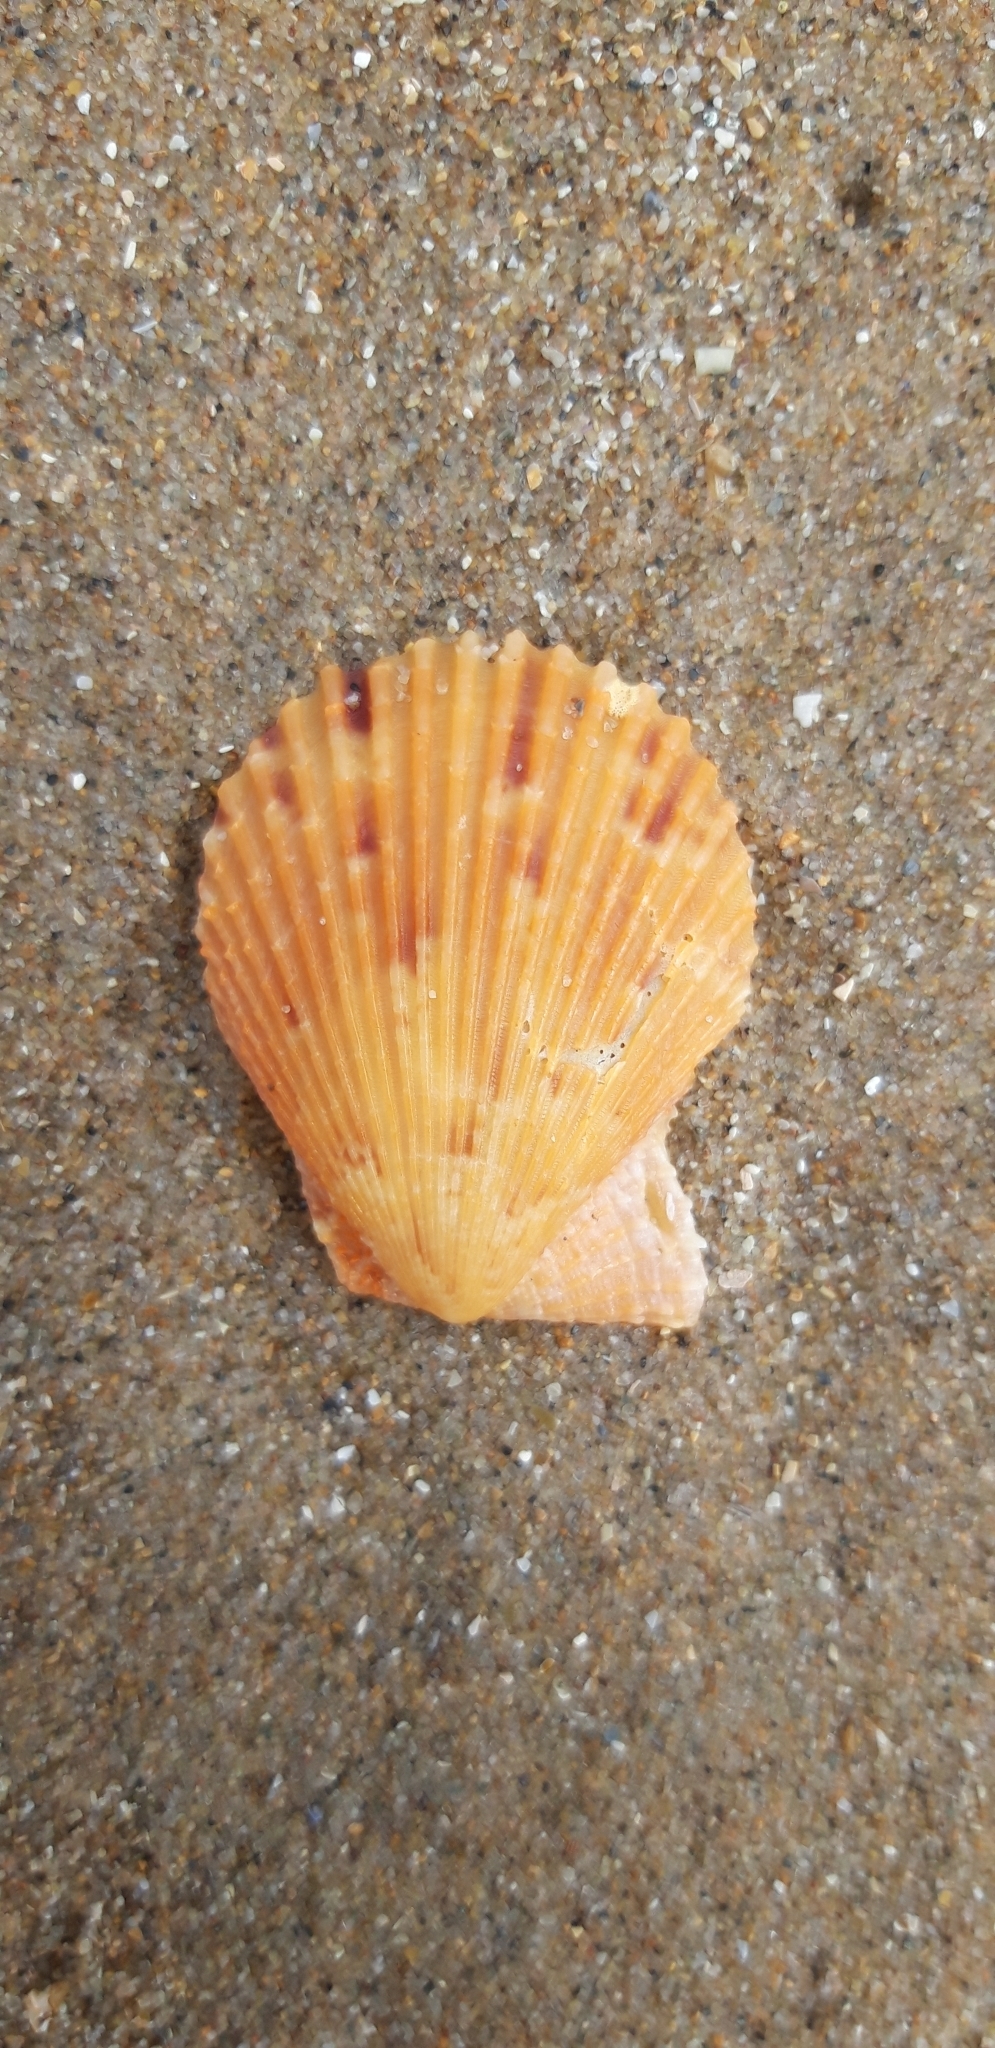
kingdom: Animalia
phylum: Mollusca
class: Bivalvia
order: Pectinida
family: Pectinidae
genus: Mimachlamys
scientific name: Mimachlamys varia
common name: Variegated scallop
